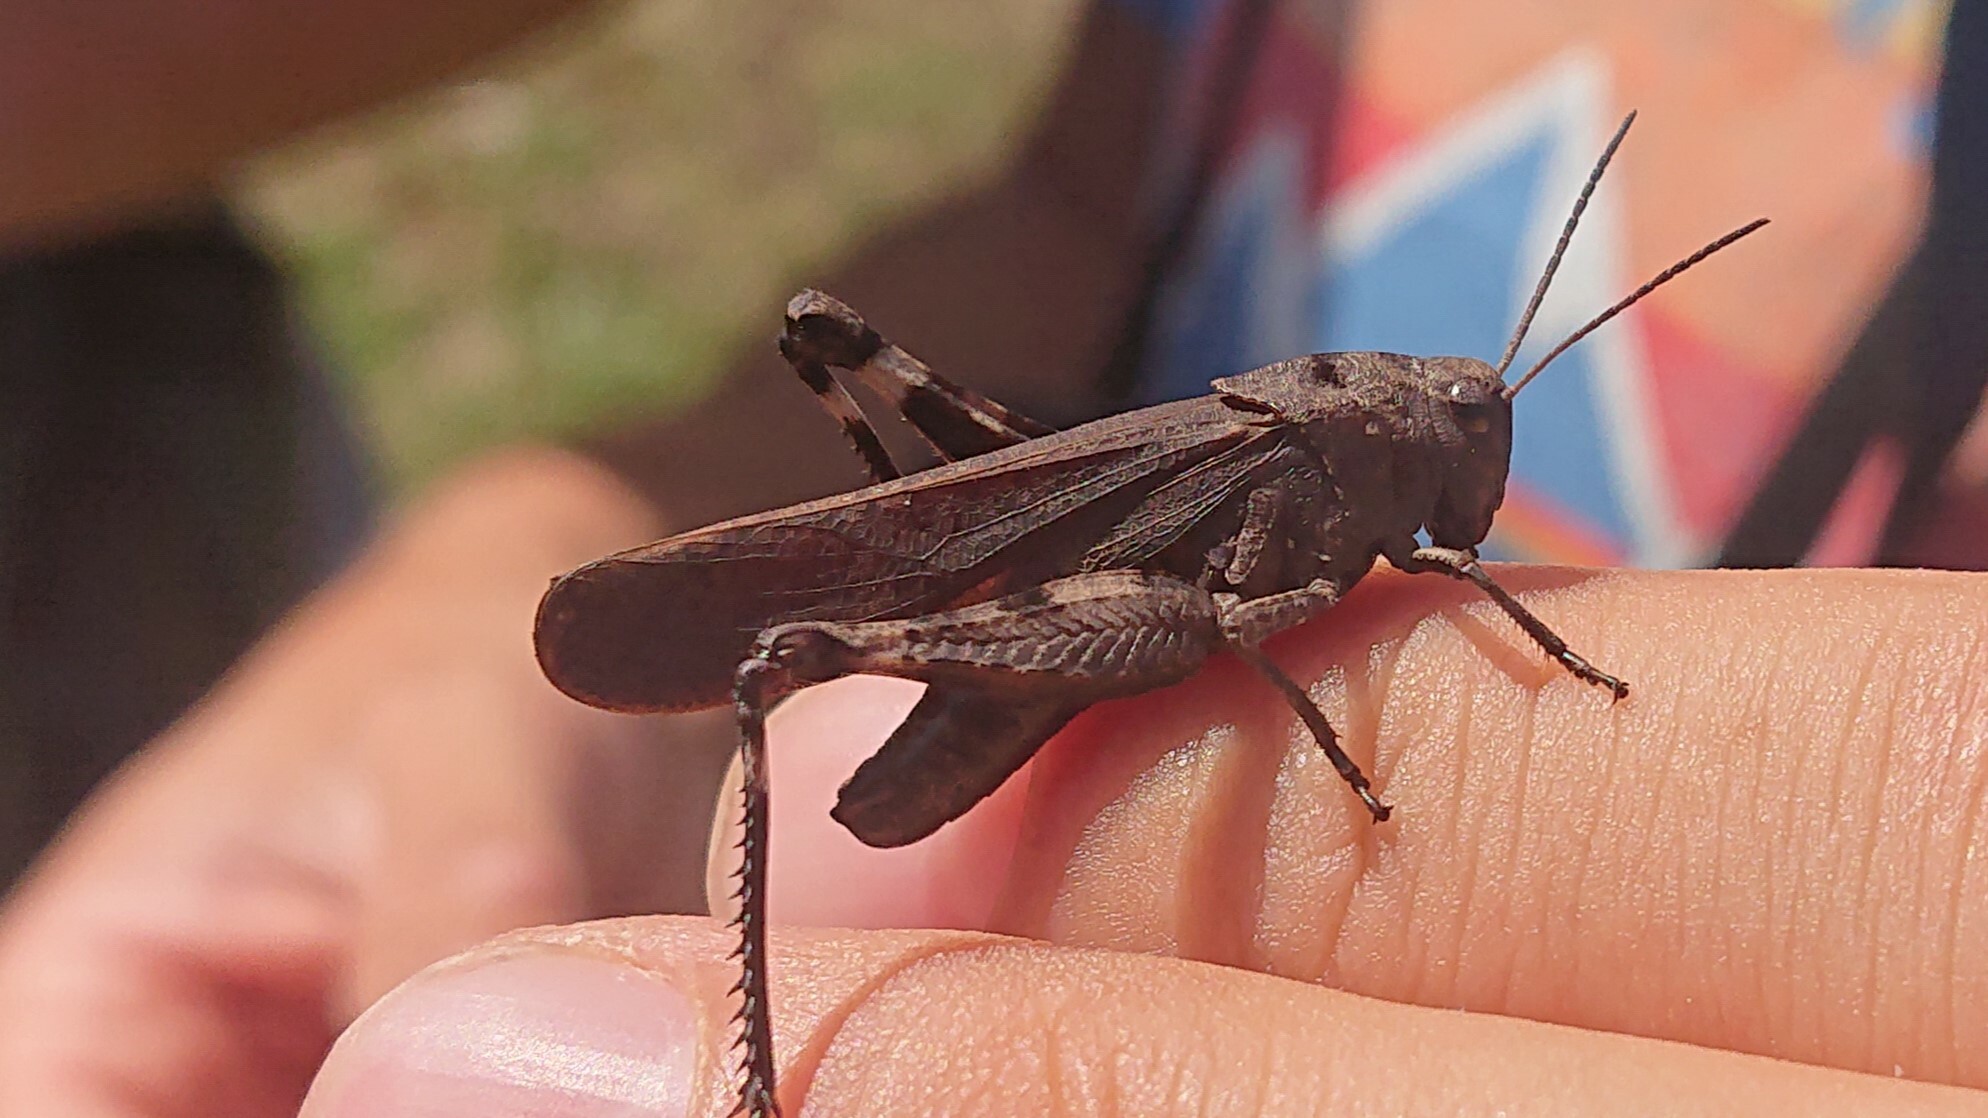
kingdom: Animalia
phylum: Arthropoda
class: Insecta
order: Orthoptera
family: Acrididae
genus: Psophus
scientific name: Psophus stridulus
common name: Rattle grasshopper
